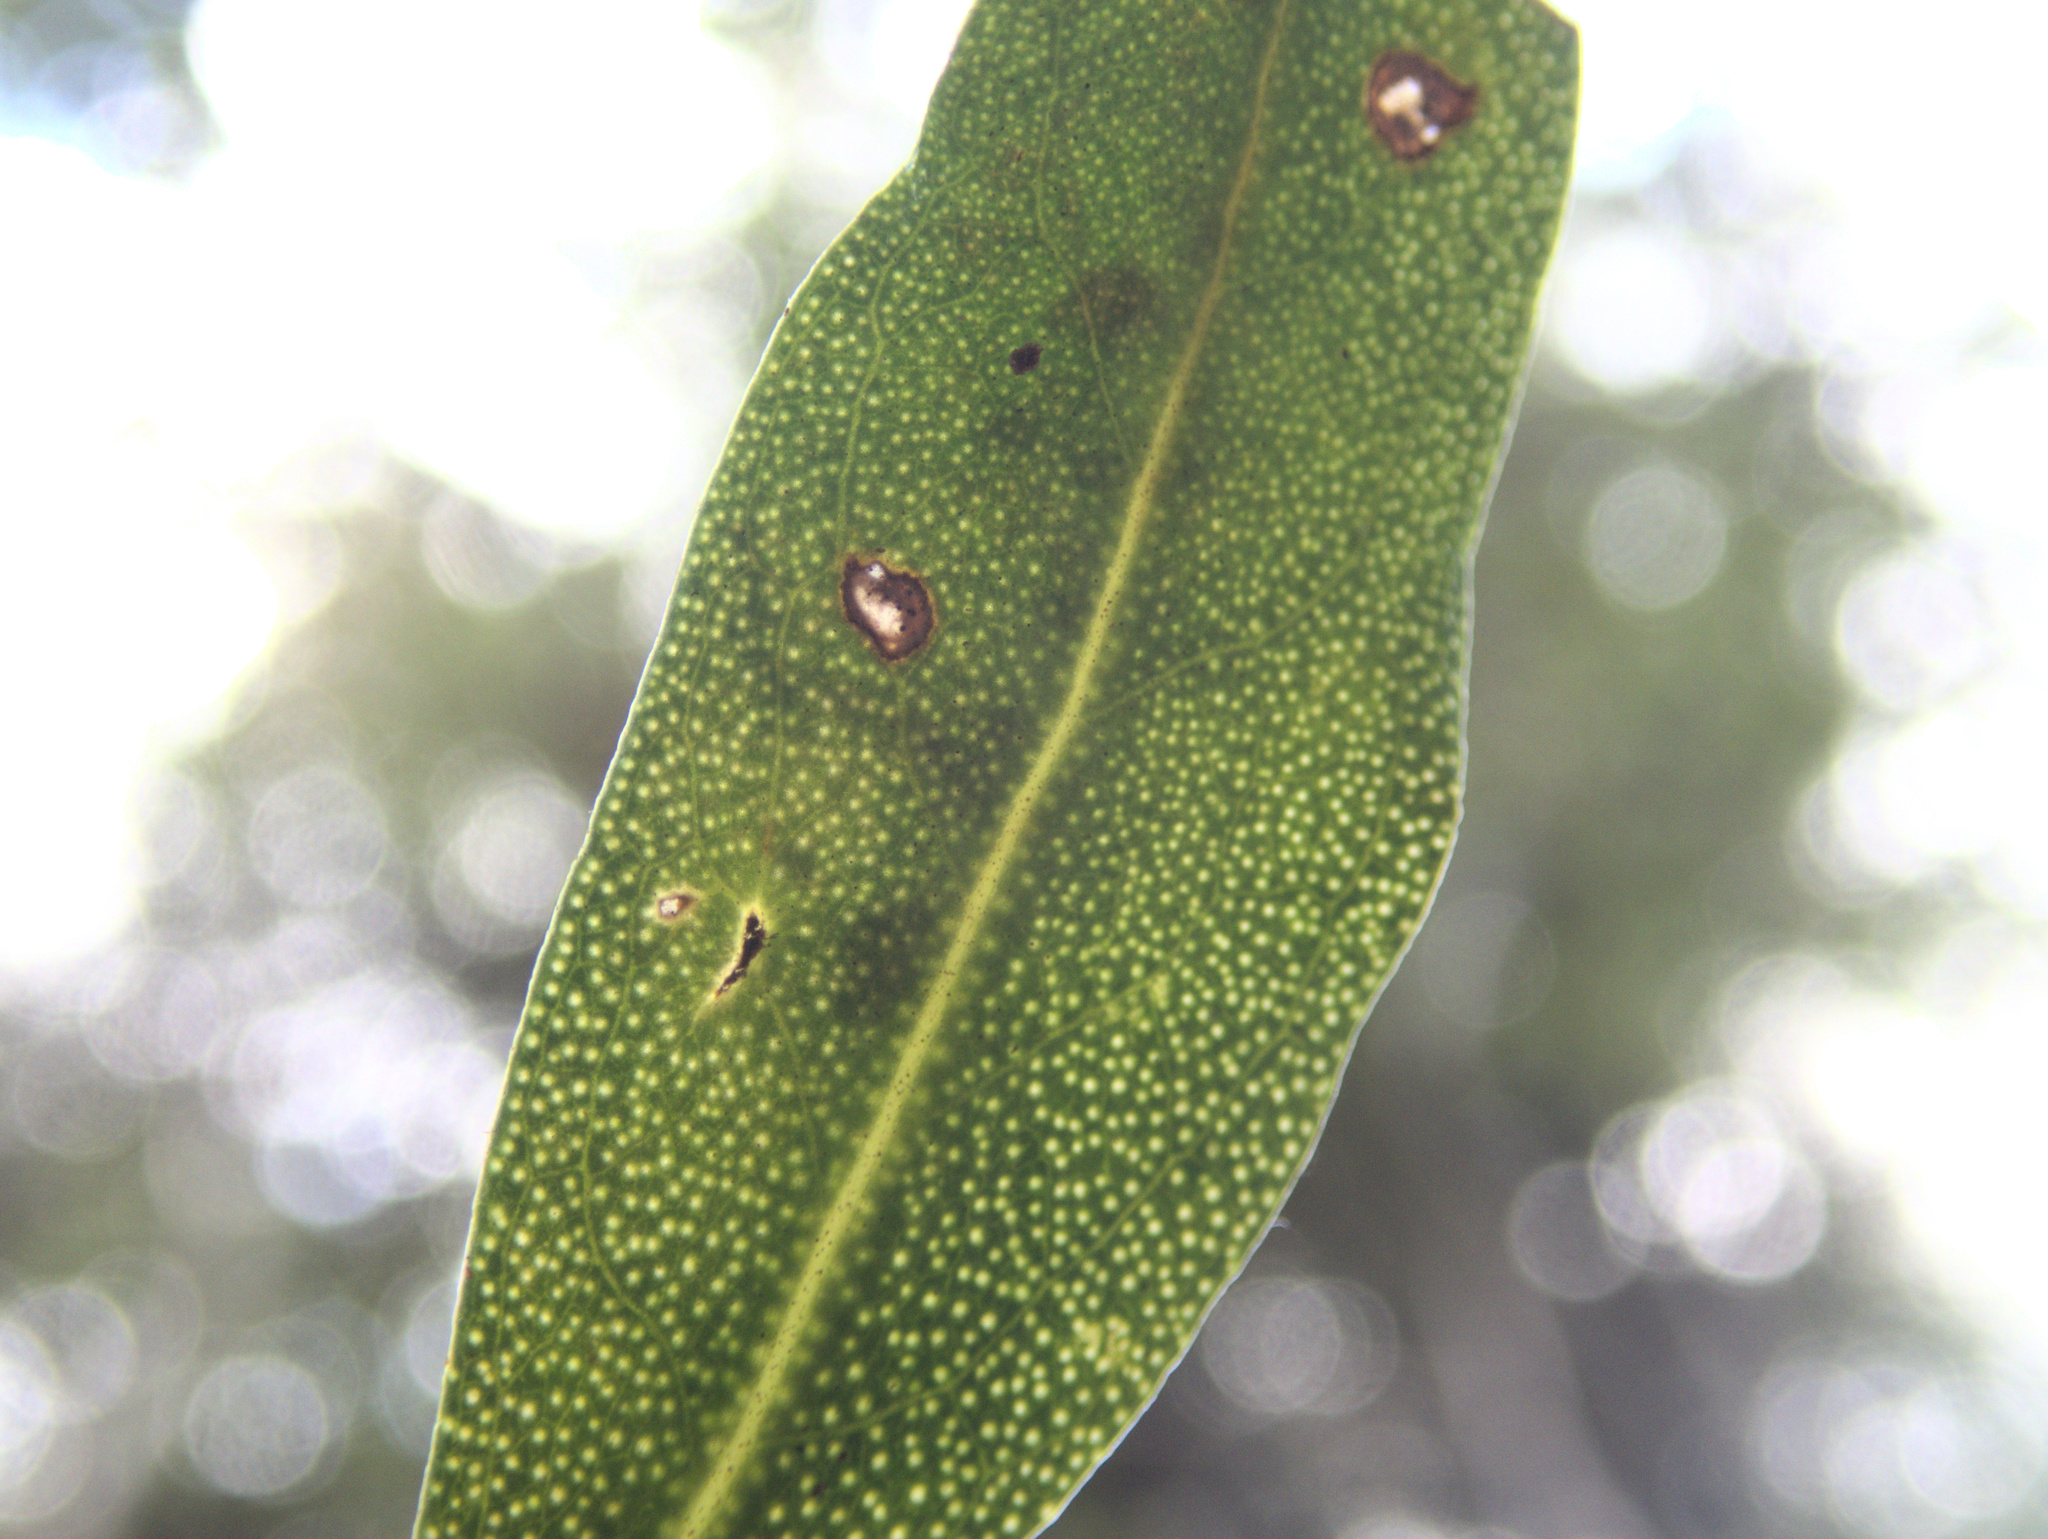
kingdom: Plantae
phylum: Tracheophyta
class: Magnoliopsida
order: Lamiales
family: Scrophulariaceae
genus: Myoporum
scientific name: Myoporum laetum
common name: Ngaio tree
